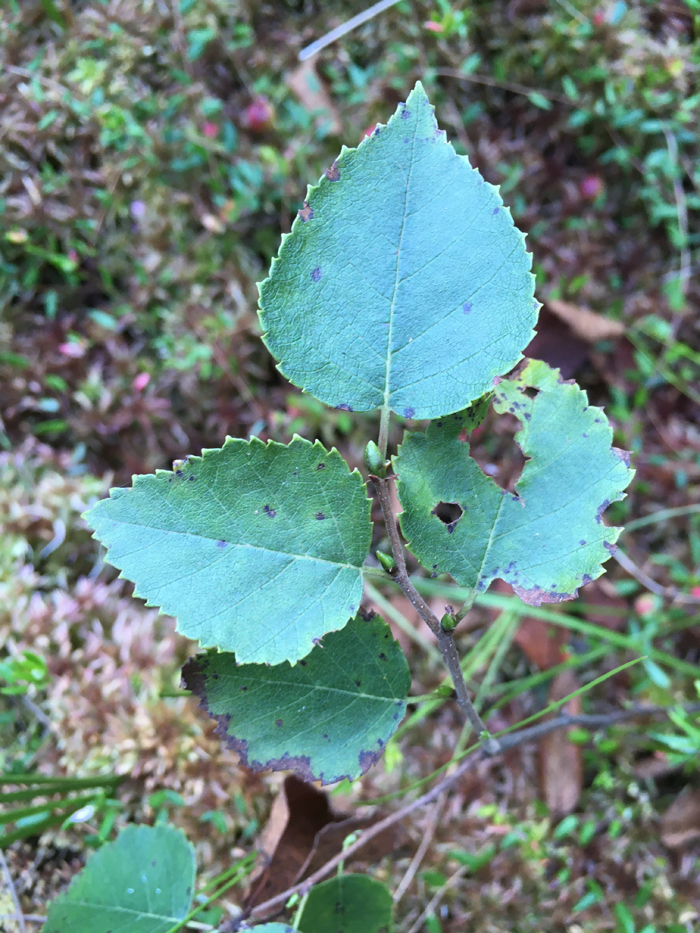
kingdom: Plantae
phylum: Tracheophyta
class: Magnoliopsida
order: Fagales
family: Betulaceae
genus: Betula
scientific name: Betula pendula
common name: Silver birch
